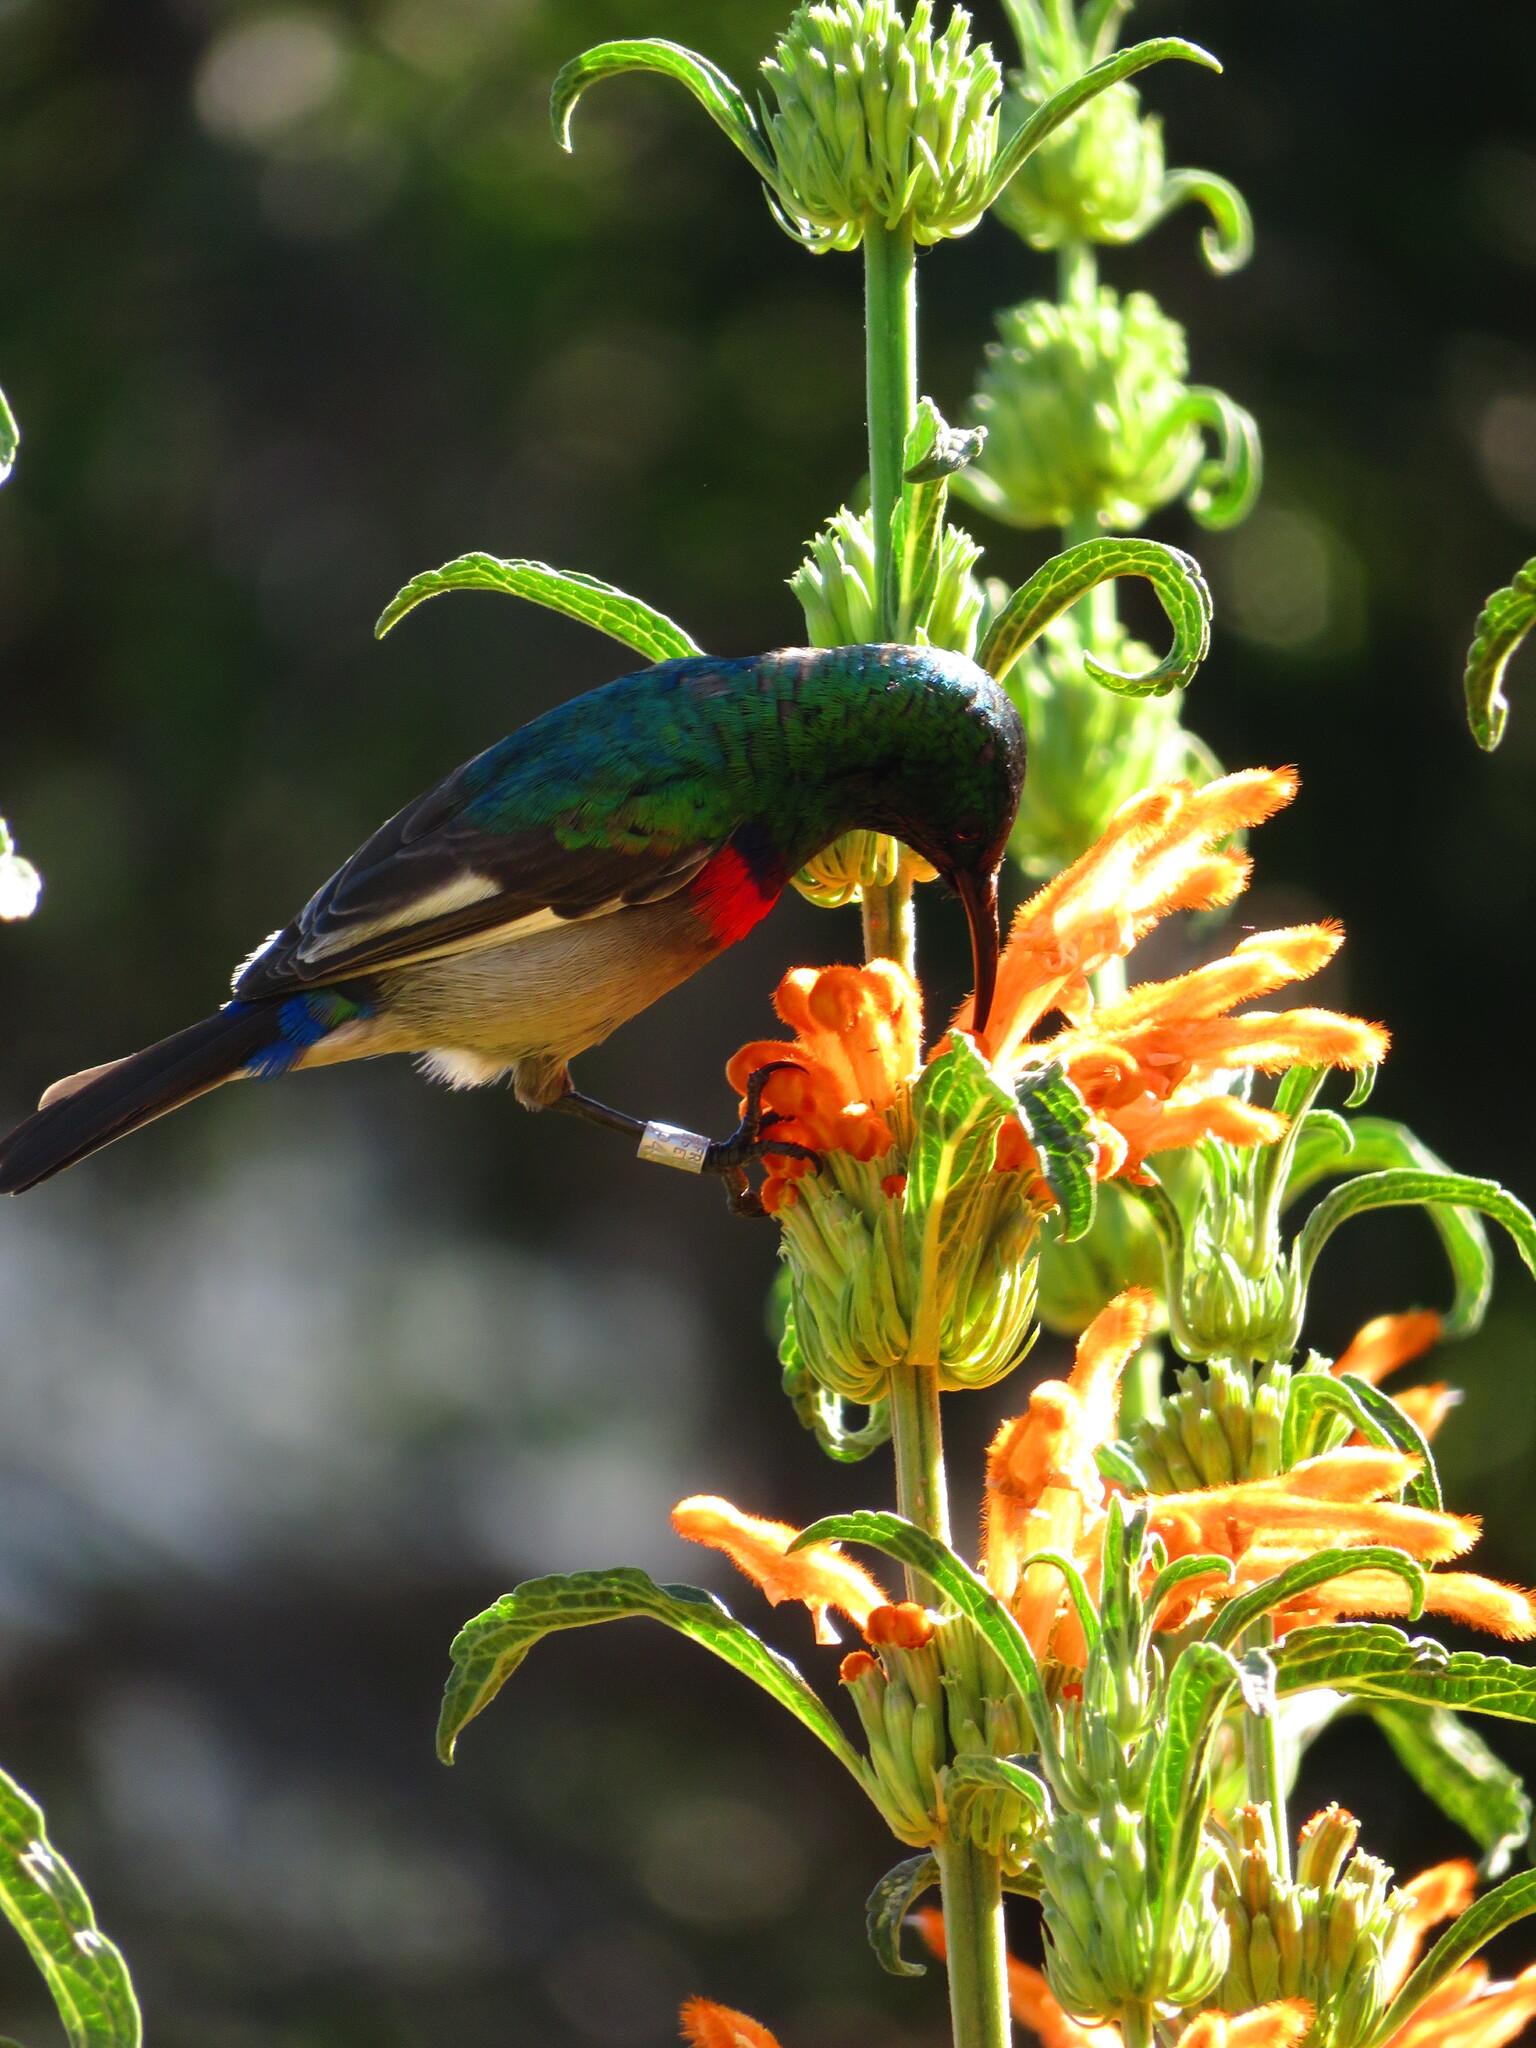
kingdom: Animalia
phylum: Chordata
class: Aves
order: Passeriformes
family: Nectariniidae
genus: Cinnyris
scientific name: Cinnyris chalybeus
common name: Southern double-collared sunbird
